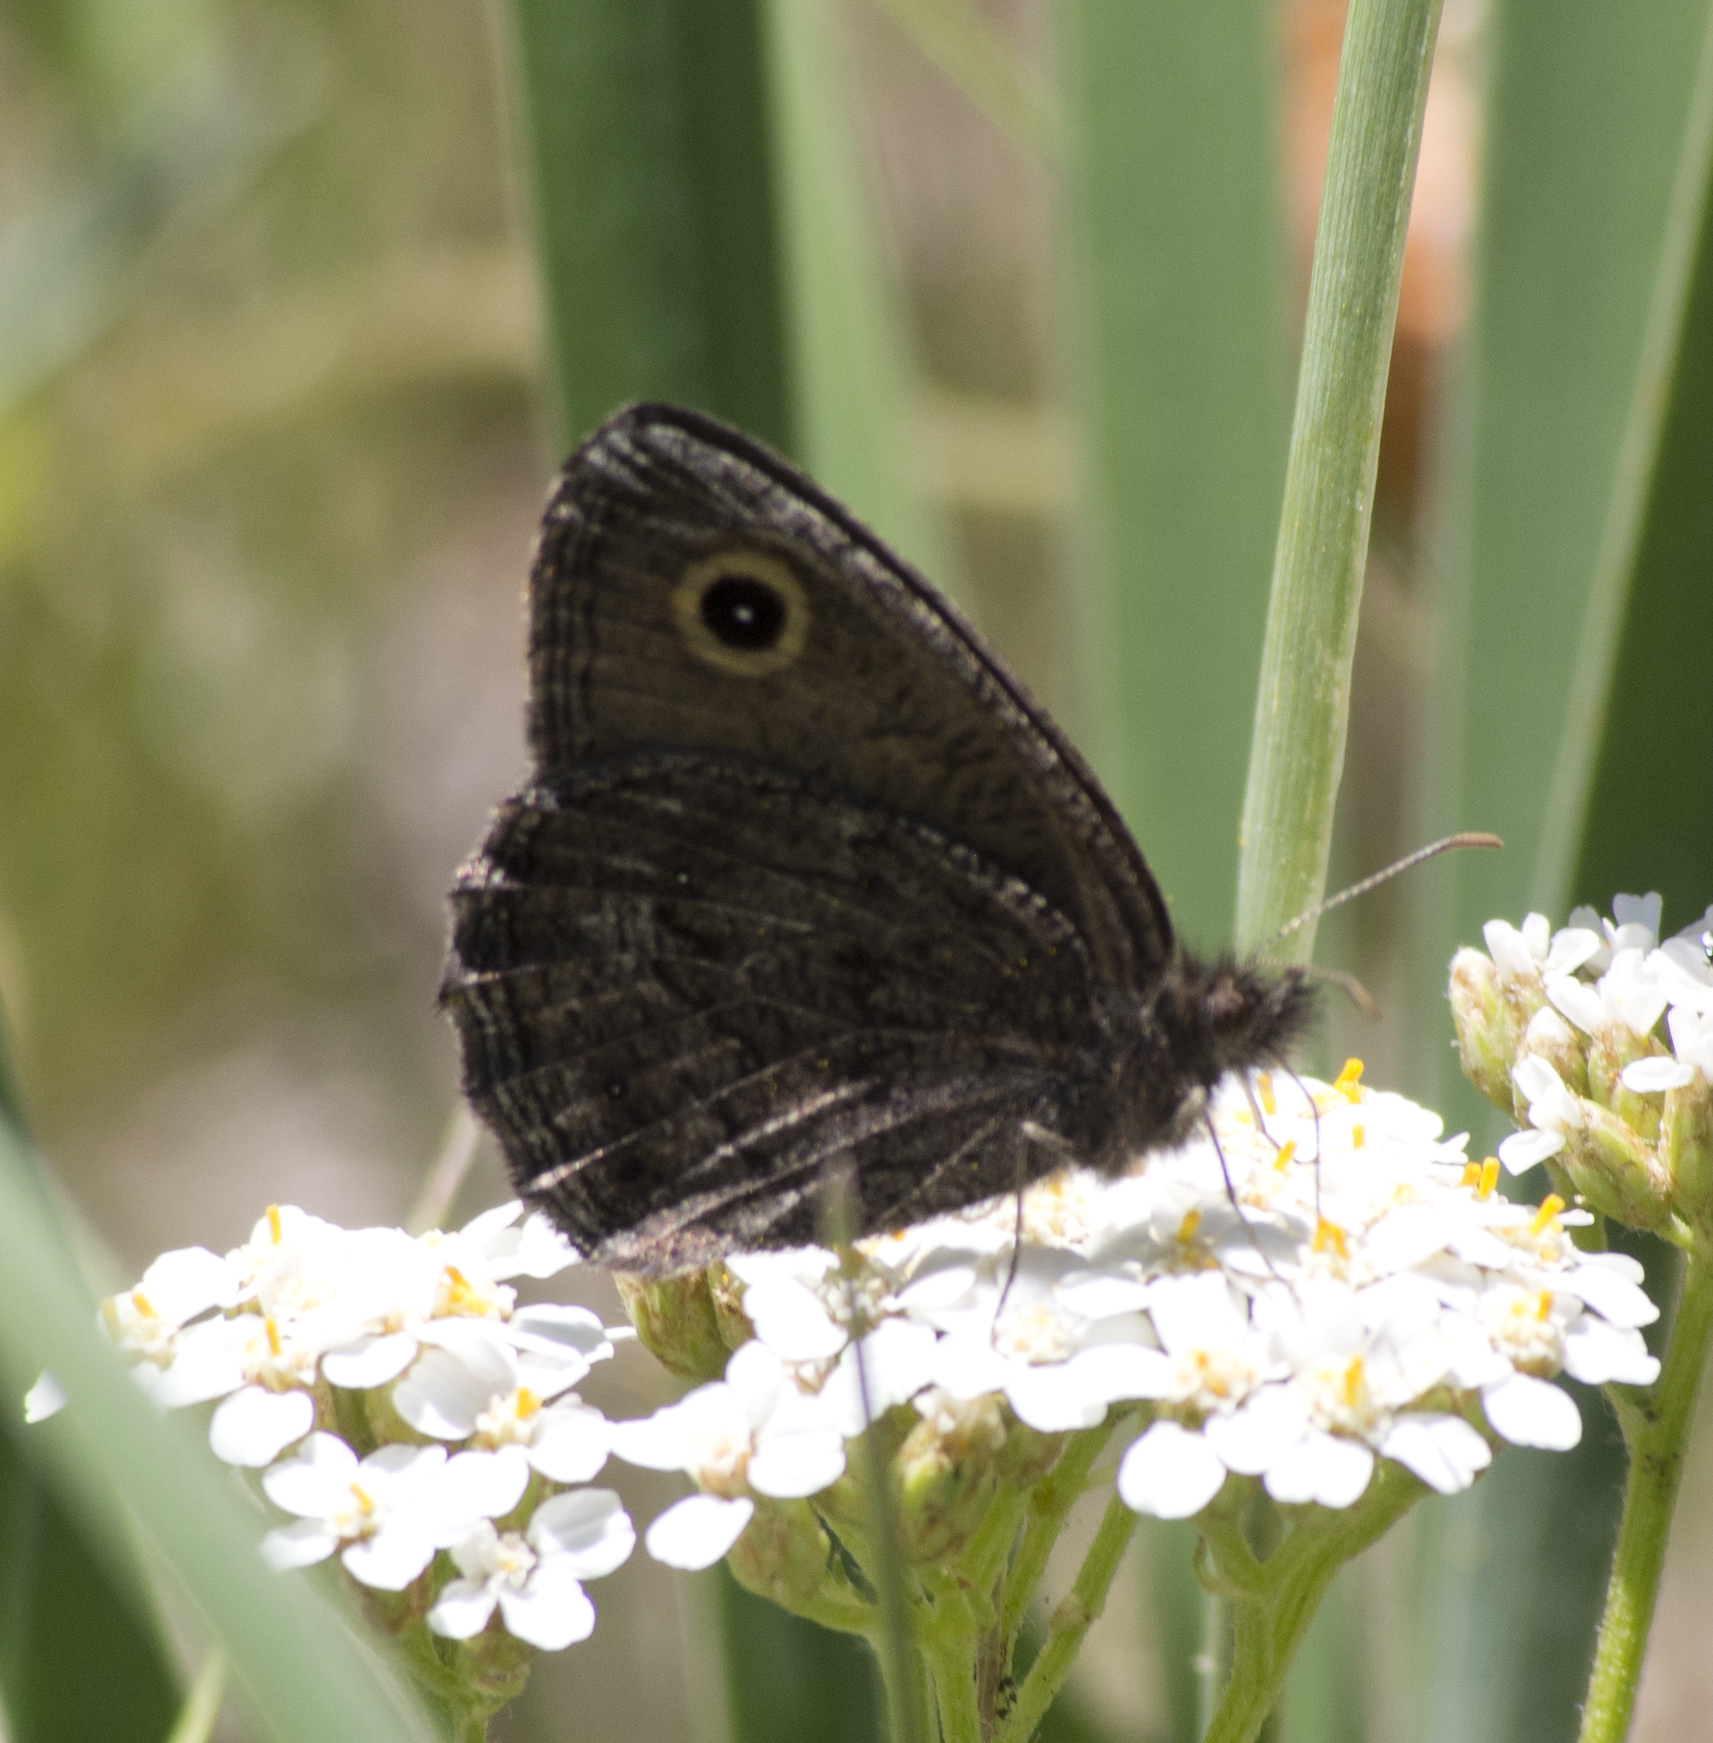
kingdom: Animalia
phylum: Arthropoda
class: Insecta
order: Lepidoptera
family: Nymphalidae
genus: Cercyonis
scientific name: Cercyonis oetus
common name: Small wood-nymph
